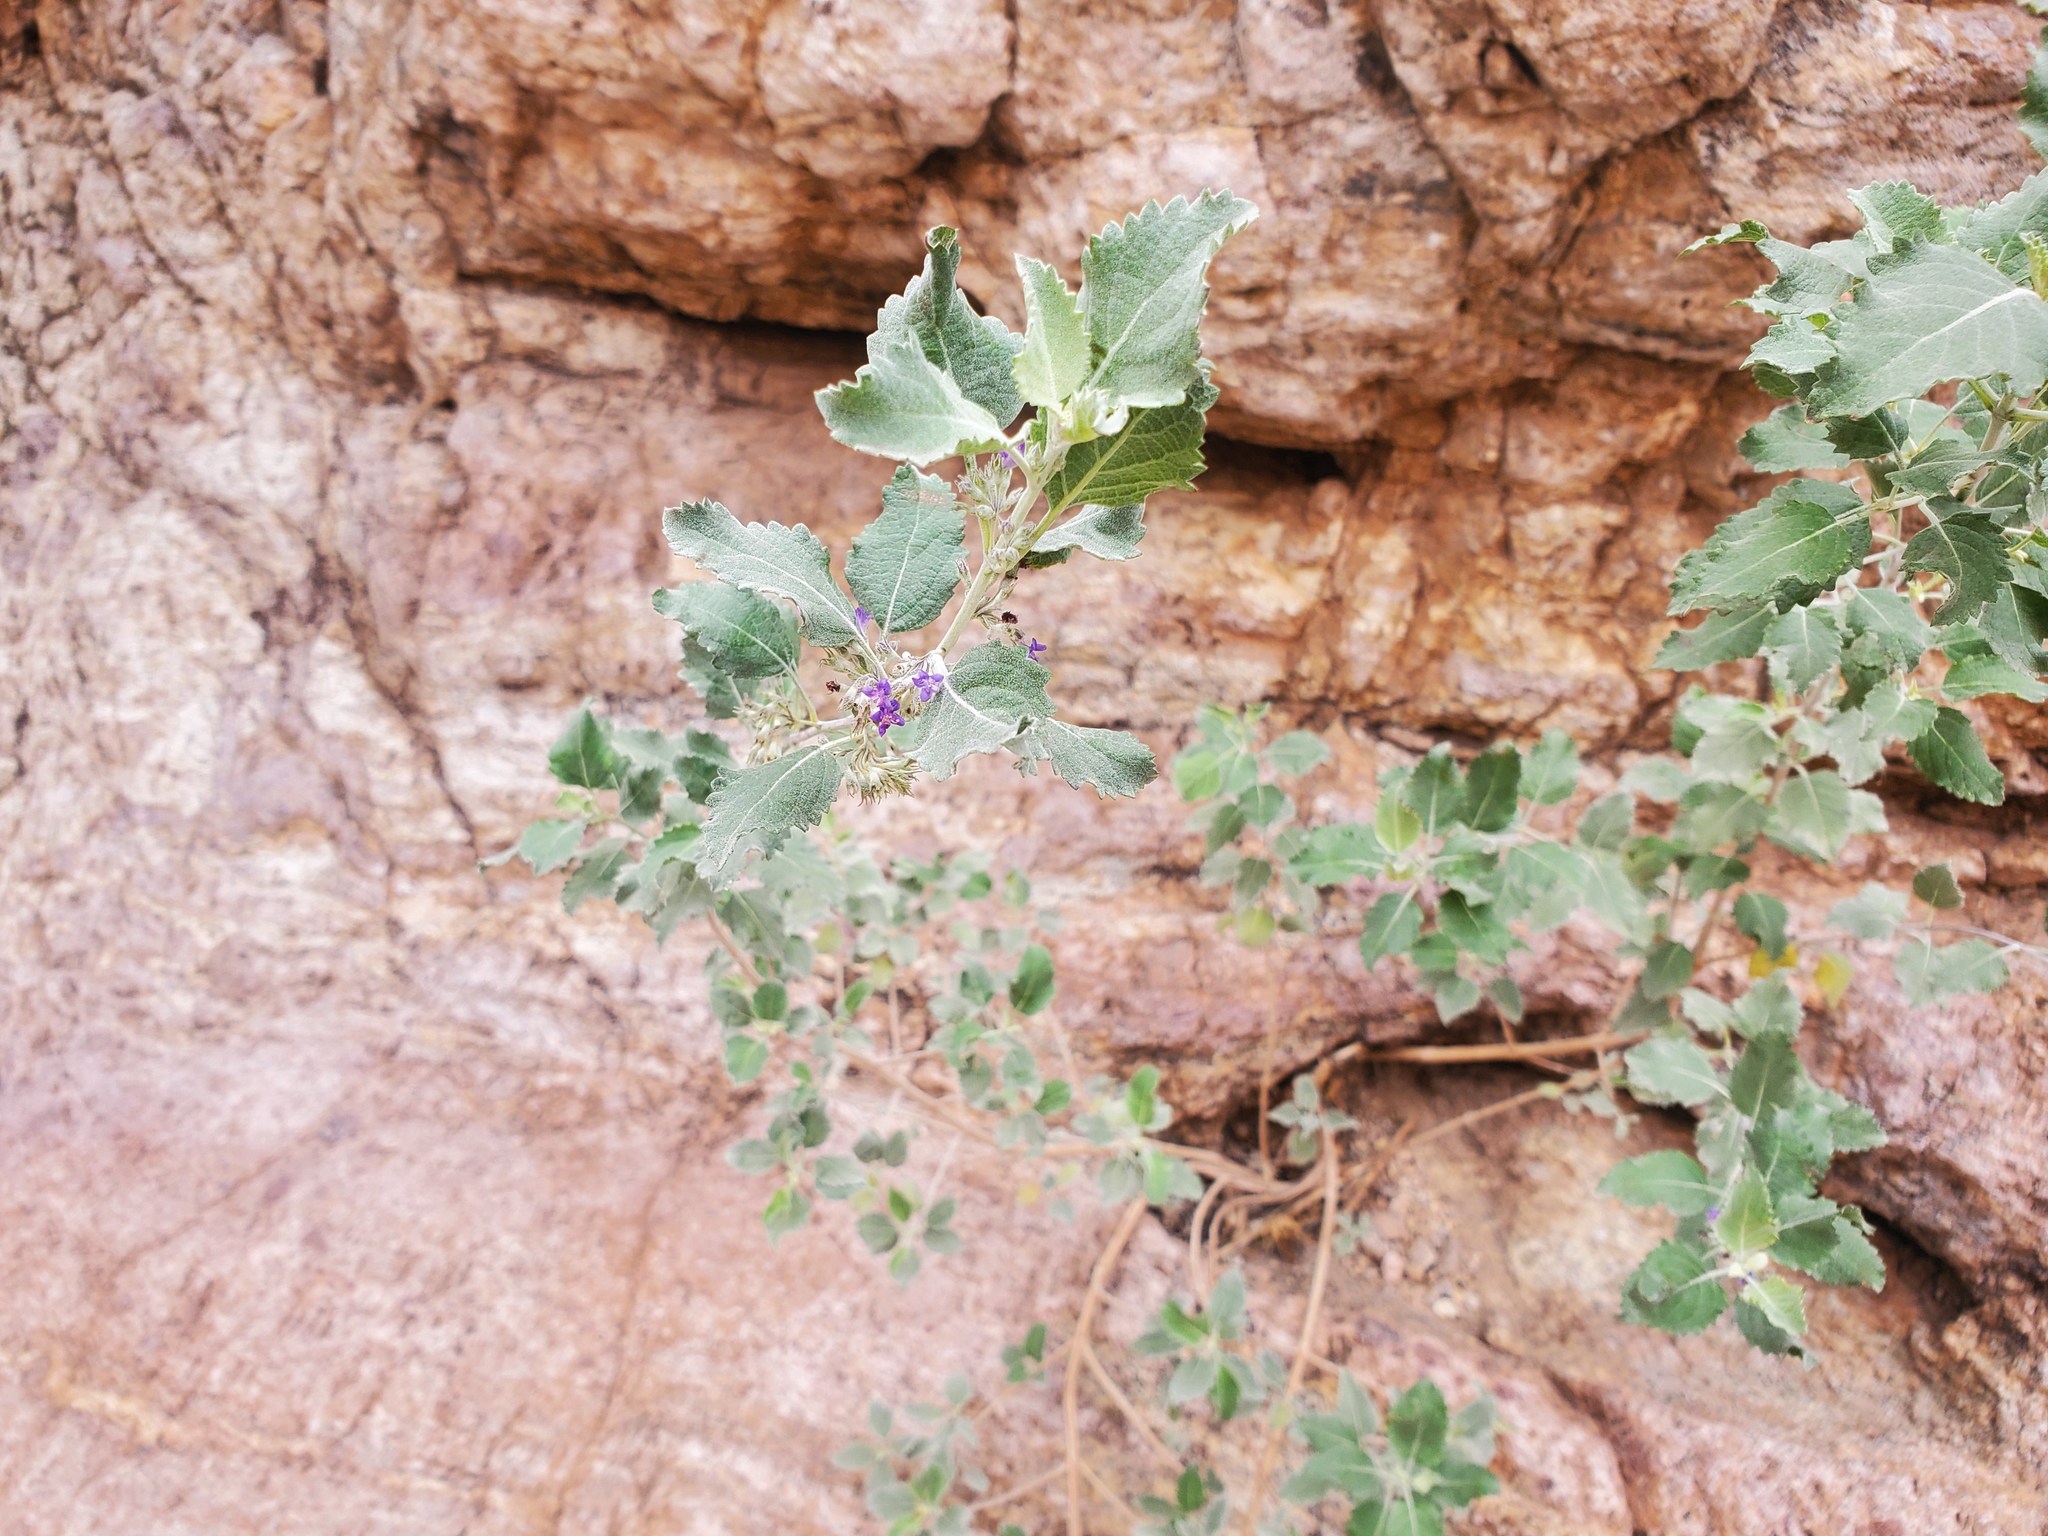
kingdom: Plantae
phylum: Tracheophyta
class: Magnoliopsida
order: Lamiales
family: Lamiaceae
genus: Condea
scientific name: Condea emoryi
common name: Chia
